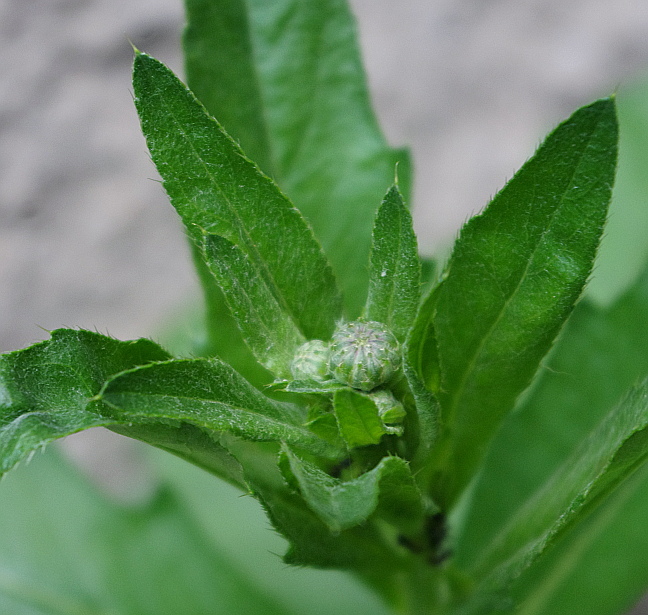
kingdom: Plantae
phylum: Tracheophyta
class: Magnoliopsida
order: Asterales
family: Asteraceae
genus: Cirsium
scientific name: Cirsium arvense
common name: Creeping thistle
